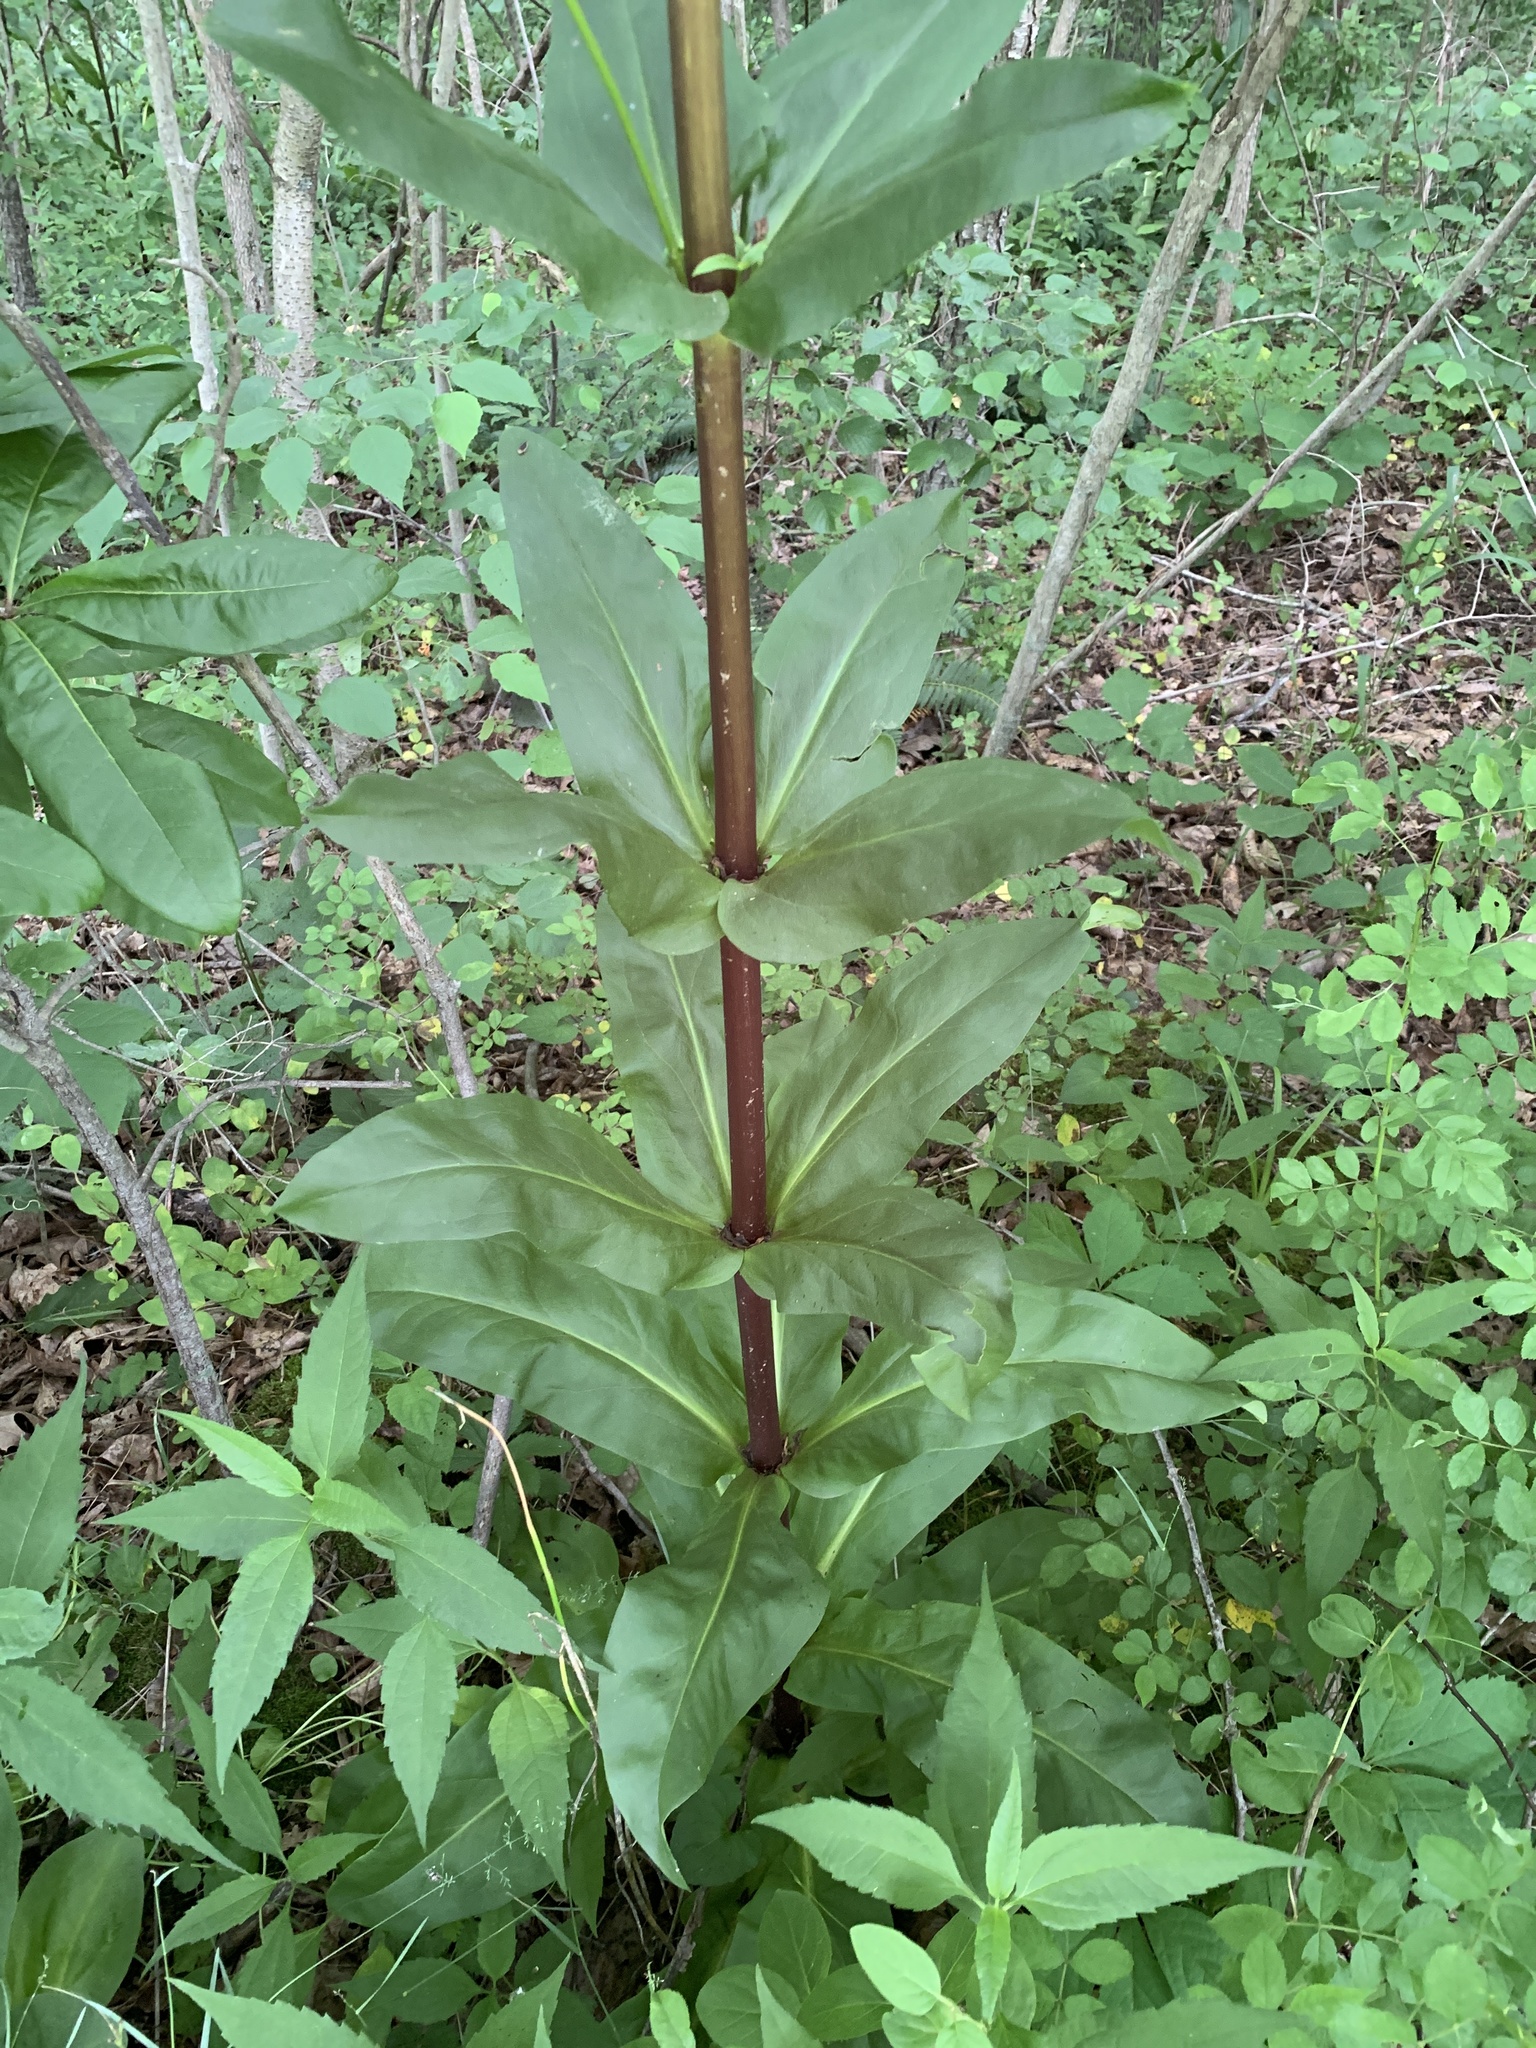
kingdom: Plantae
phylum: Tracheophyta
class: Magnoliopsida
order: Gentianales
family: Gentianaceae
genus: Frasera
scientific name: Frasera caroliniensis
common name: American columbo
